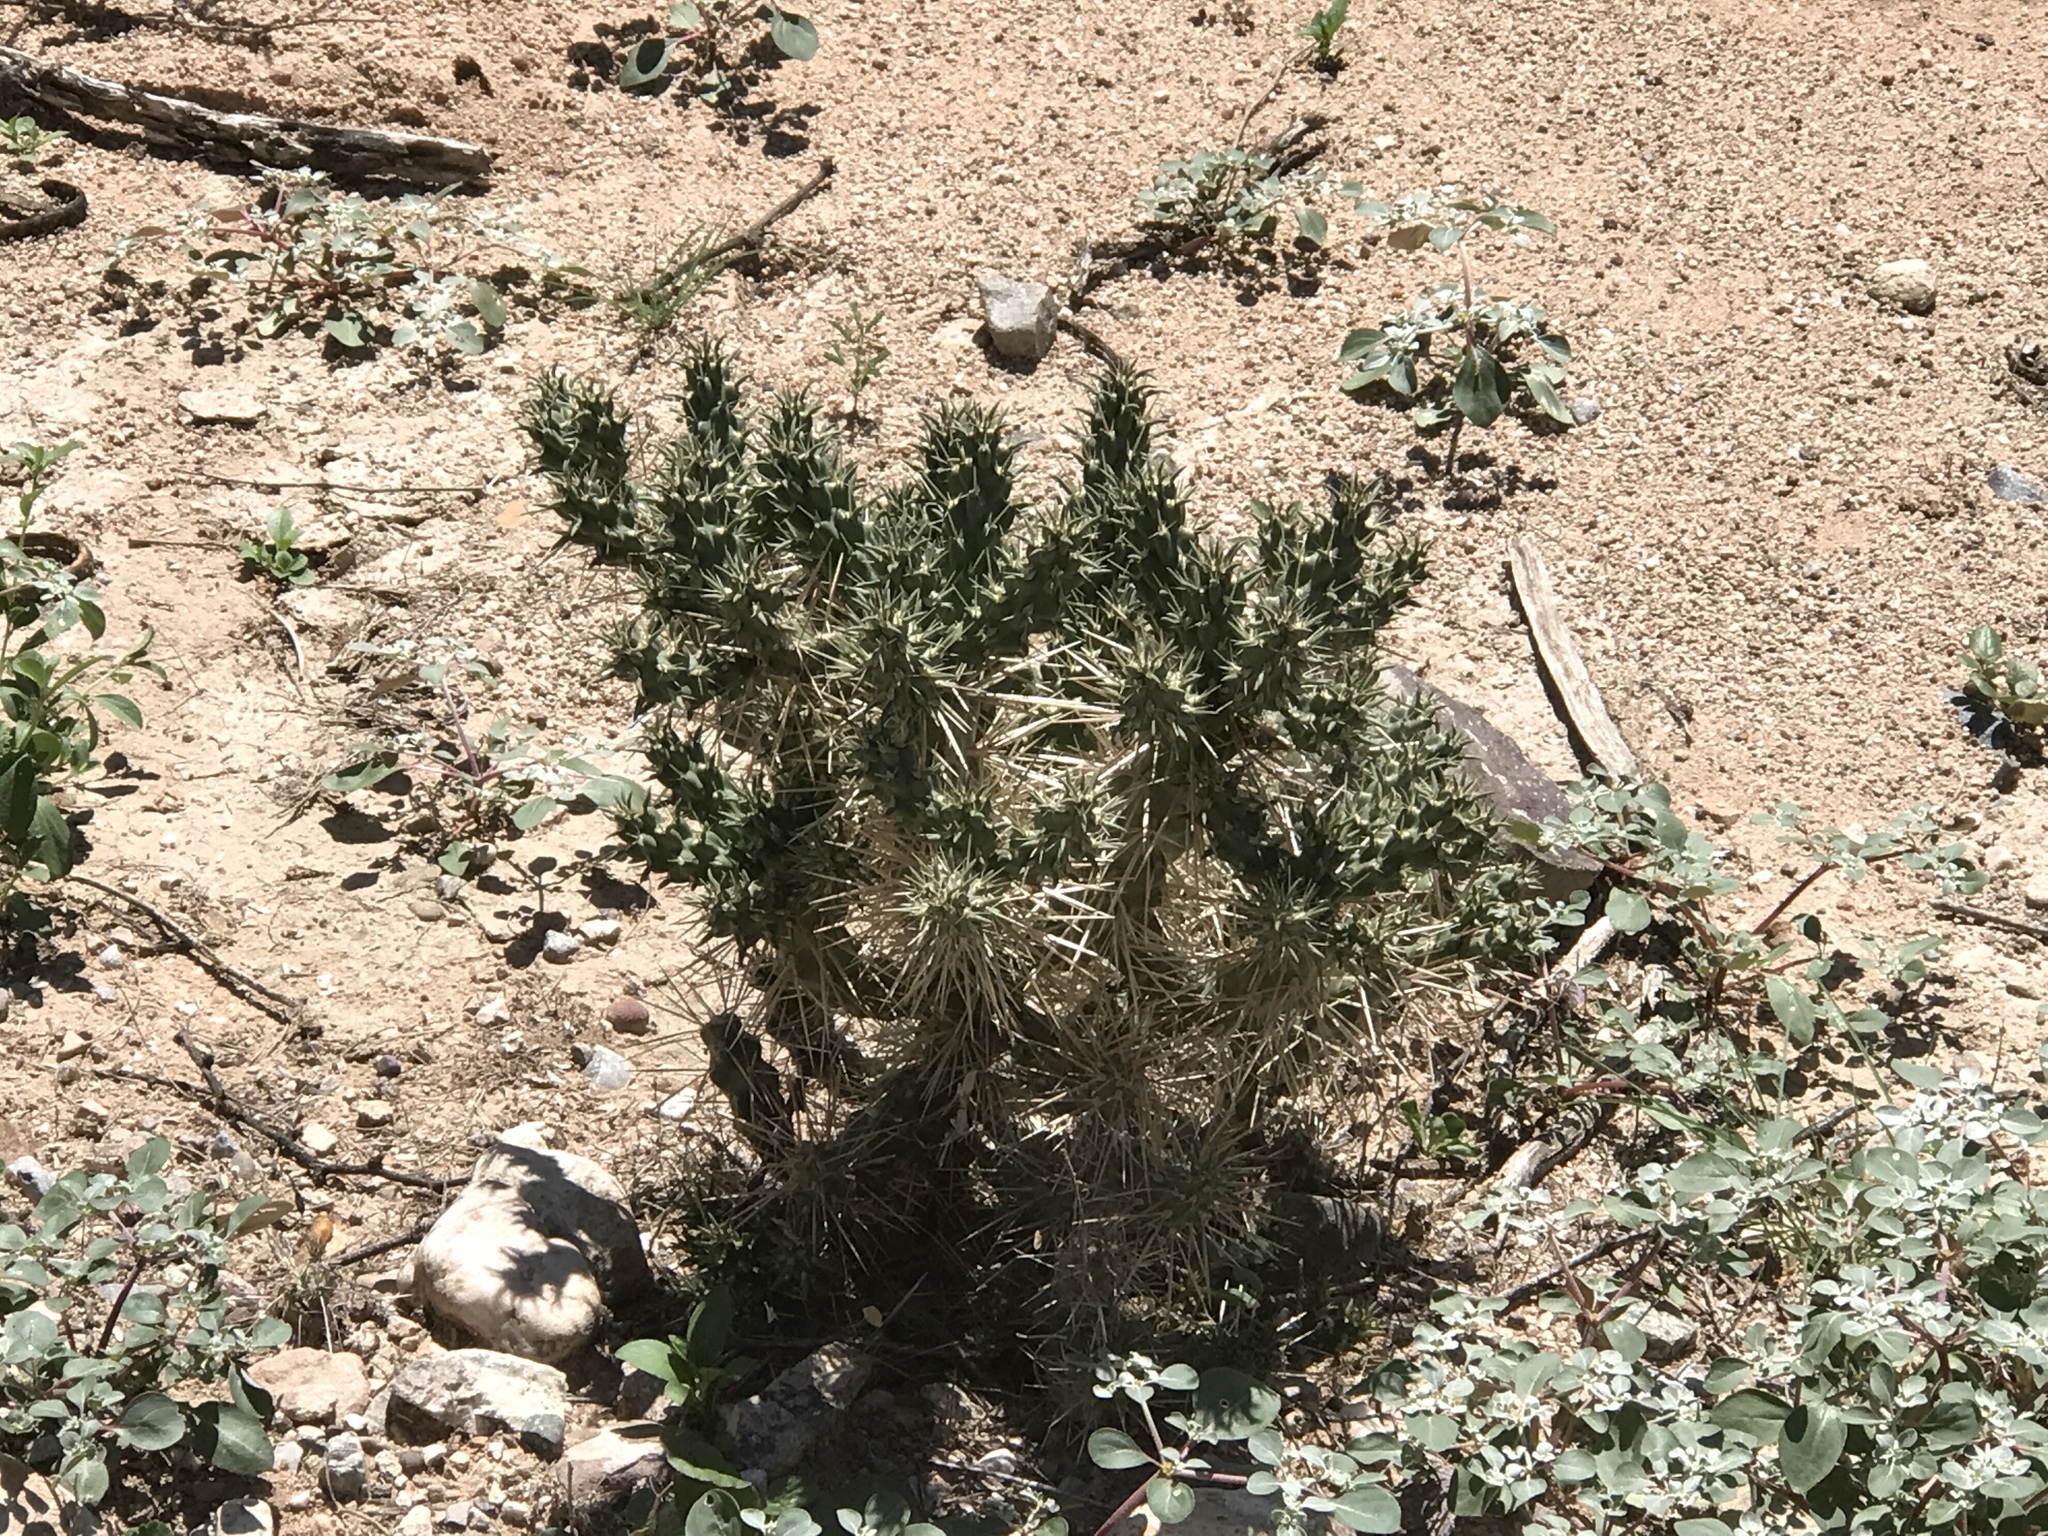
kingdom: Plantae
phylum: Tracheophyta
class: Magnoliopsida
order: Caryophyllales
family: Cactaceae
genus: Cylindropuntia
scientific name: Cylindropuntia fulgida
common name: Jumping cholla
